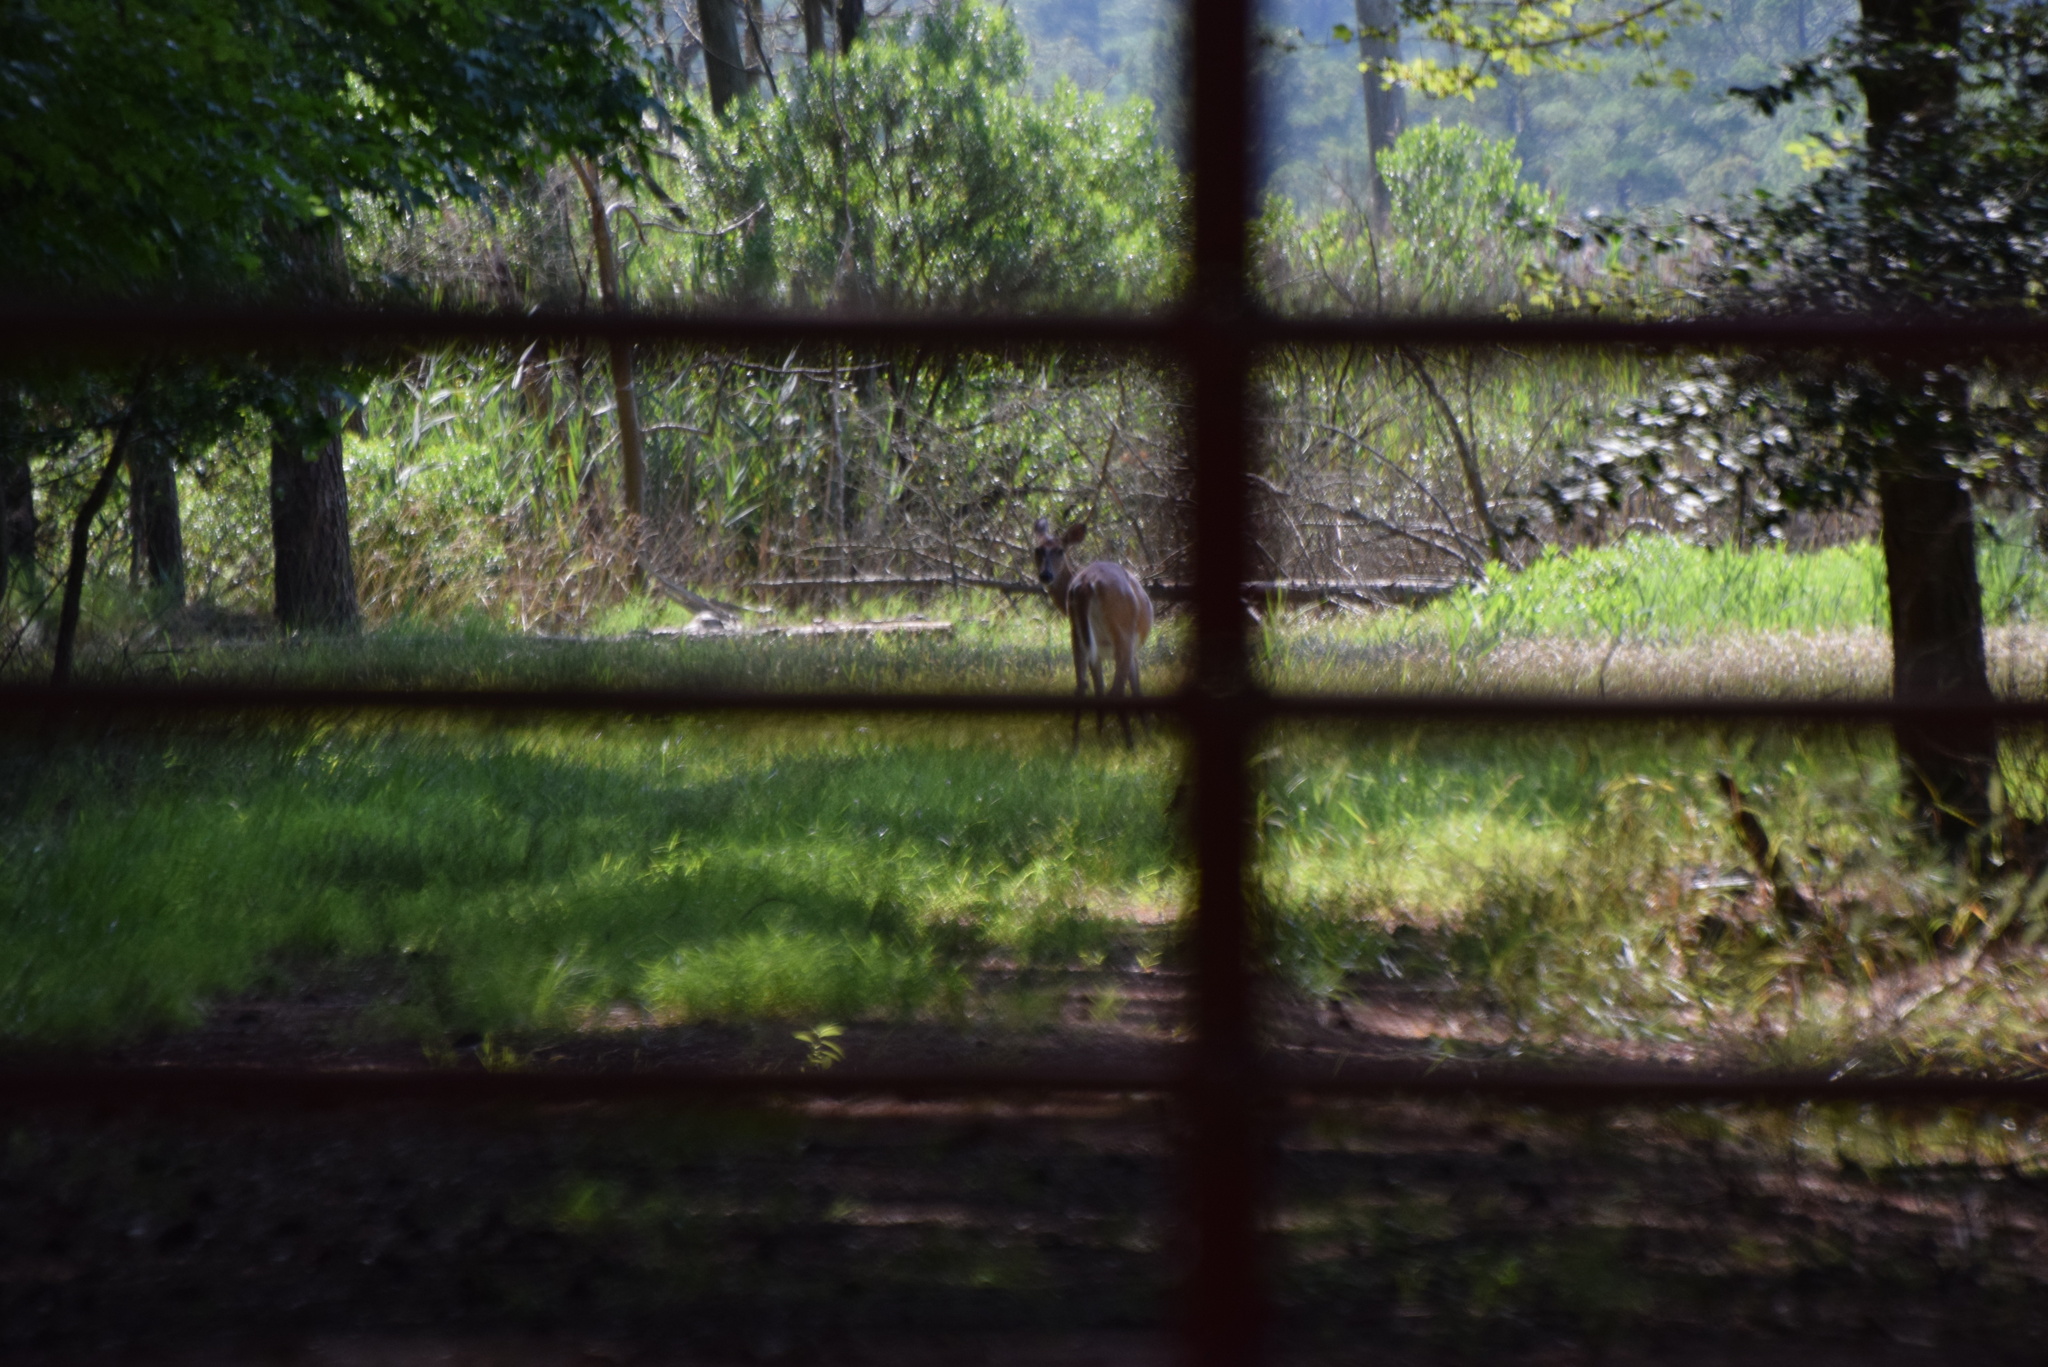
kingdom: Animalia
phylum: Chordata
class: Mammalia
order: Artiodactyla
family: Cervidae
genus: Odocoileus
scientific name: Odocoileus virginianus
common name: White-tailed deer
